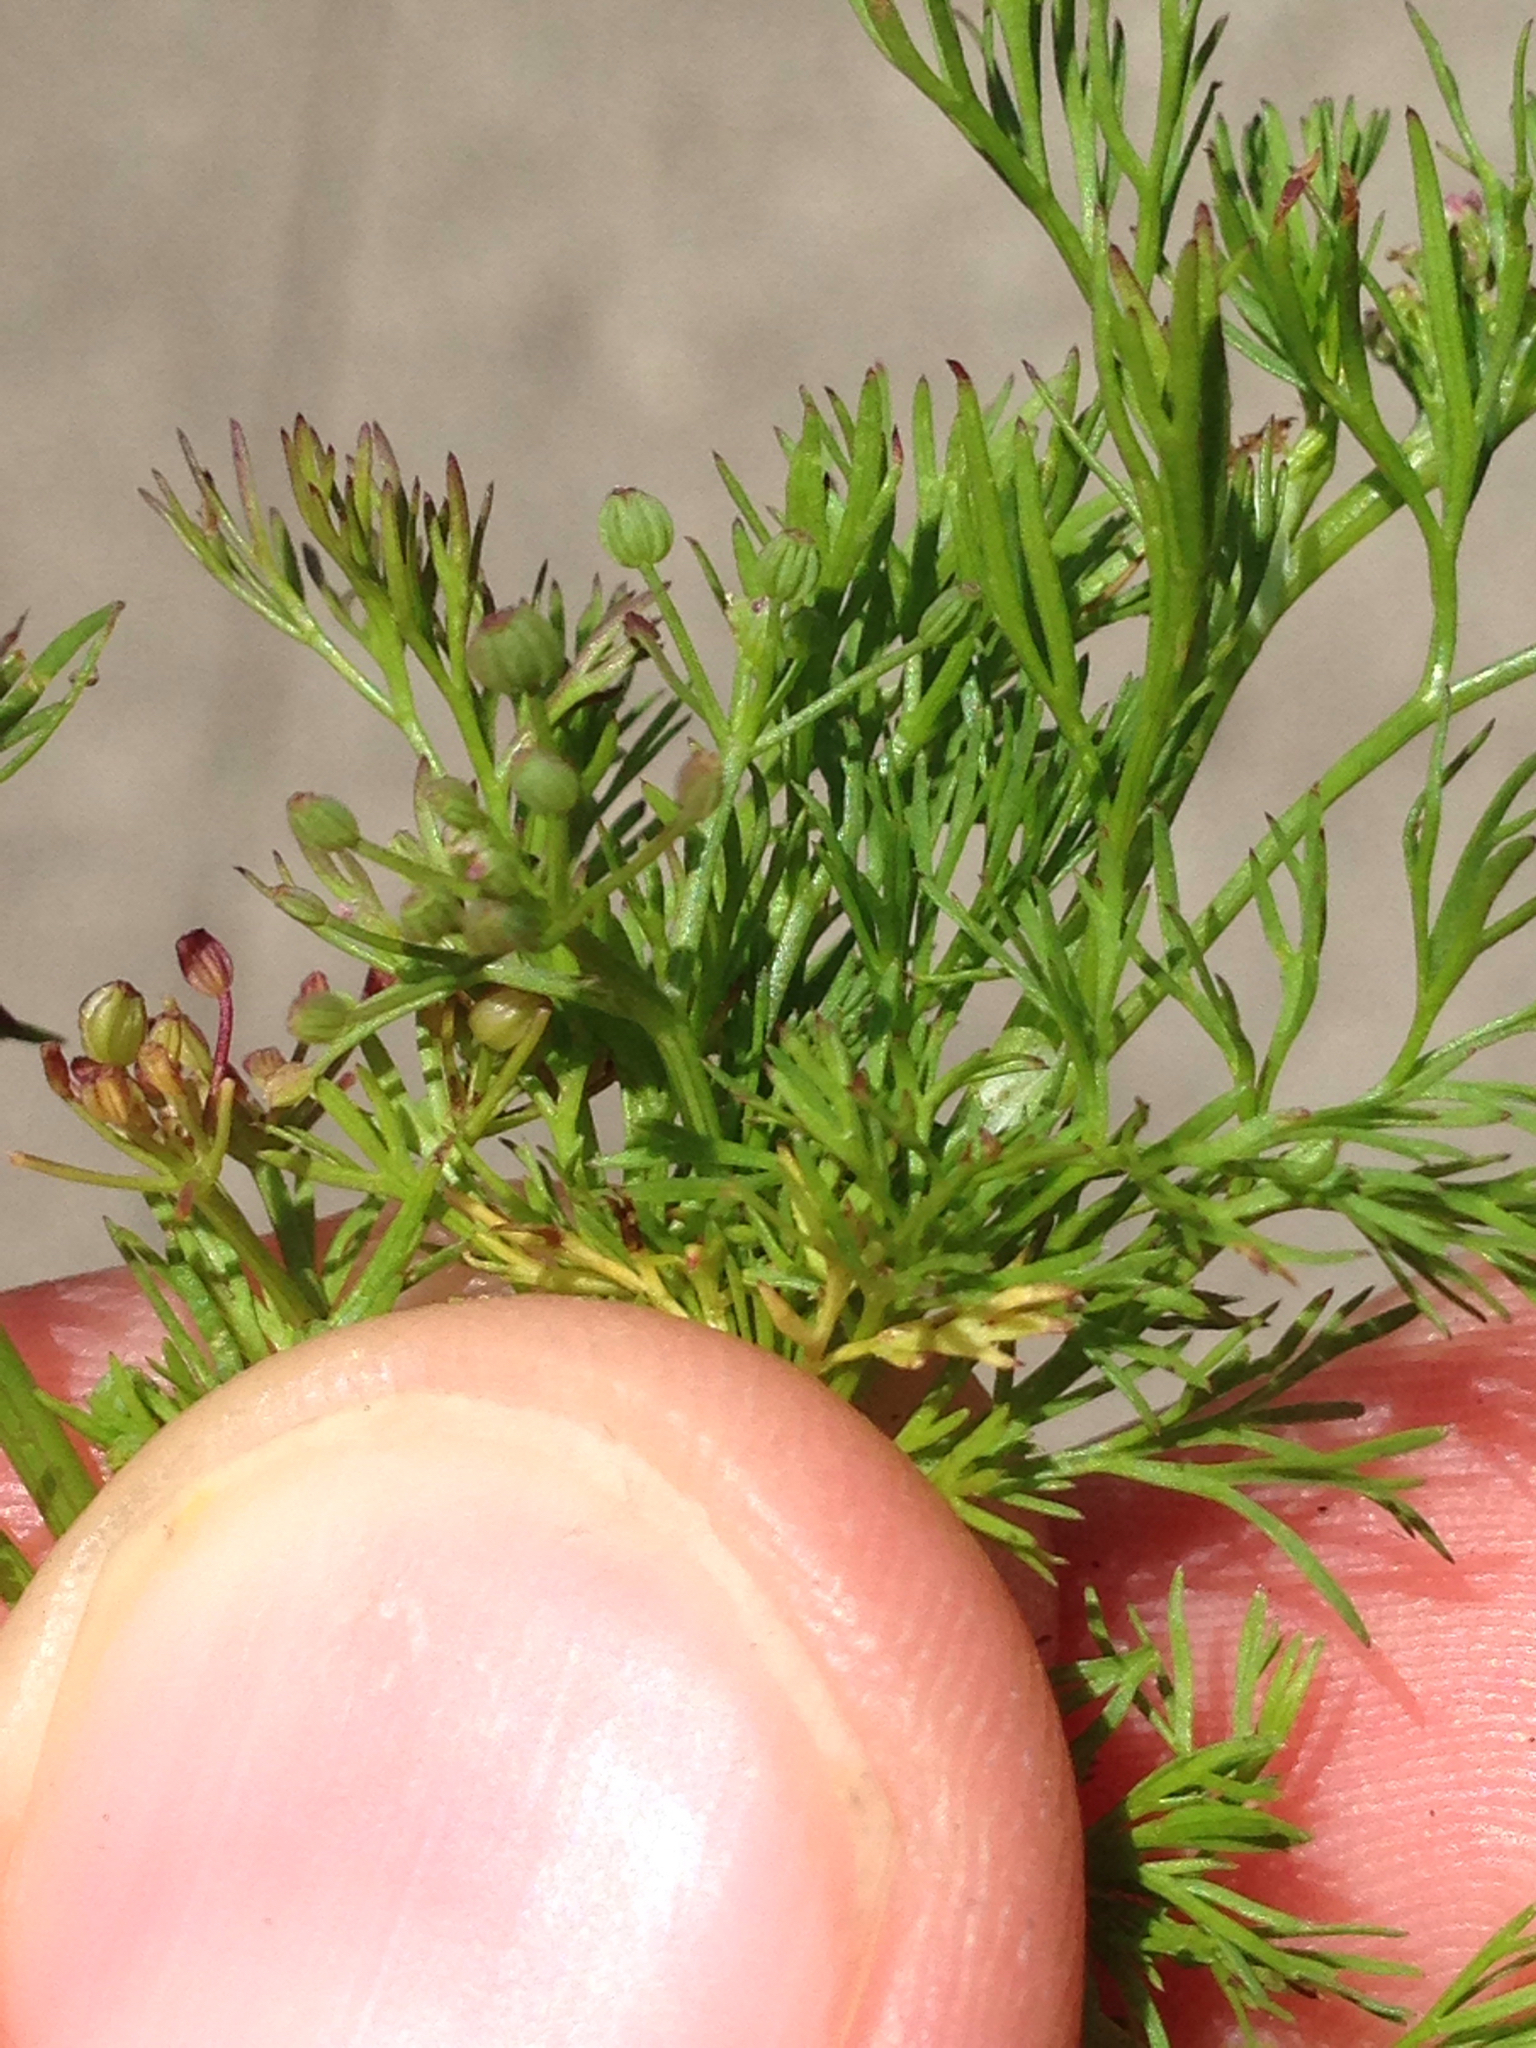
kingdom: Plantae
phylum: Tracheophyta
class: Magnoliopsida
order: Apiales
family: Apiaceae
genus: Cyclospermum
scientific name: Cyclospermum leptophyllum
